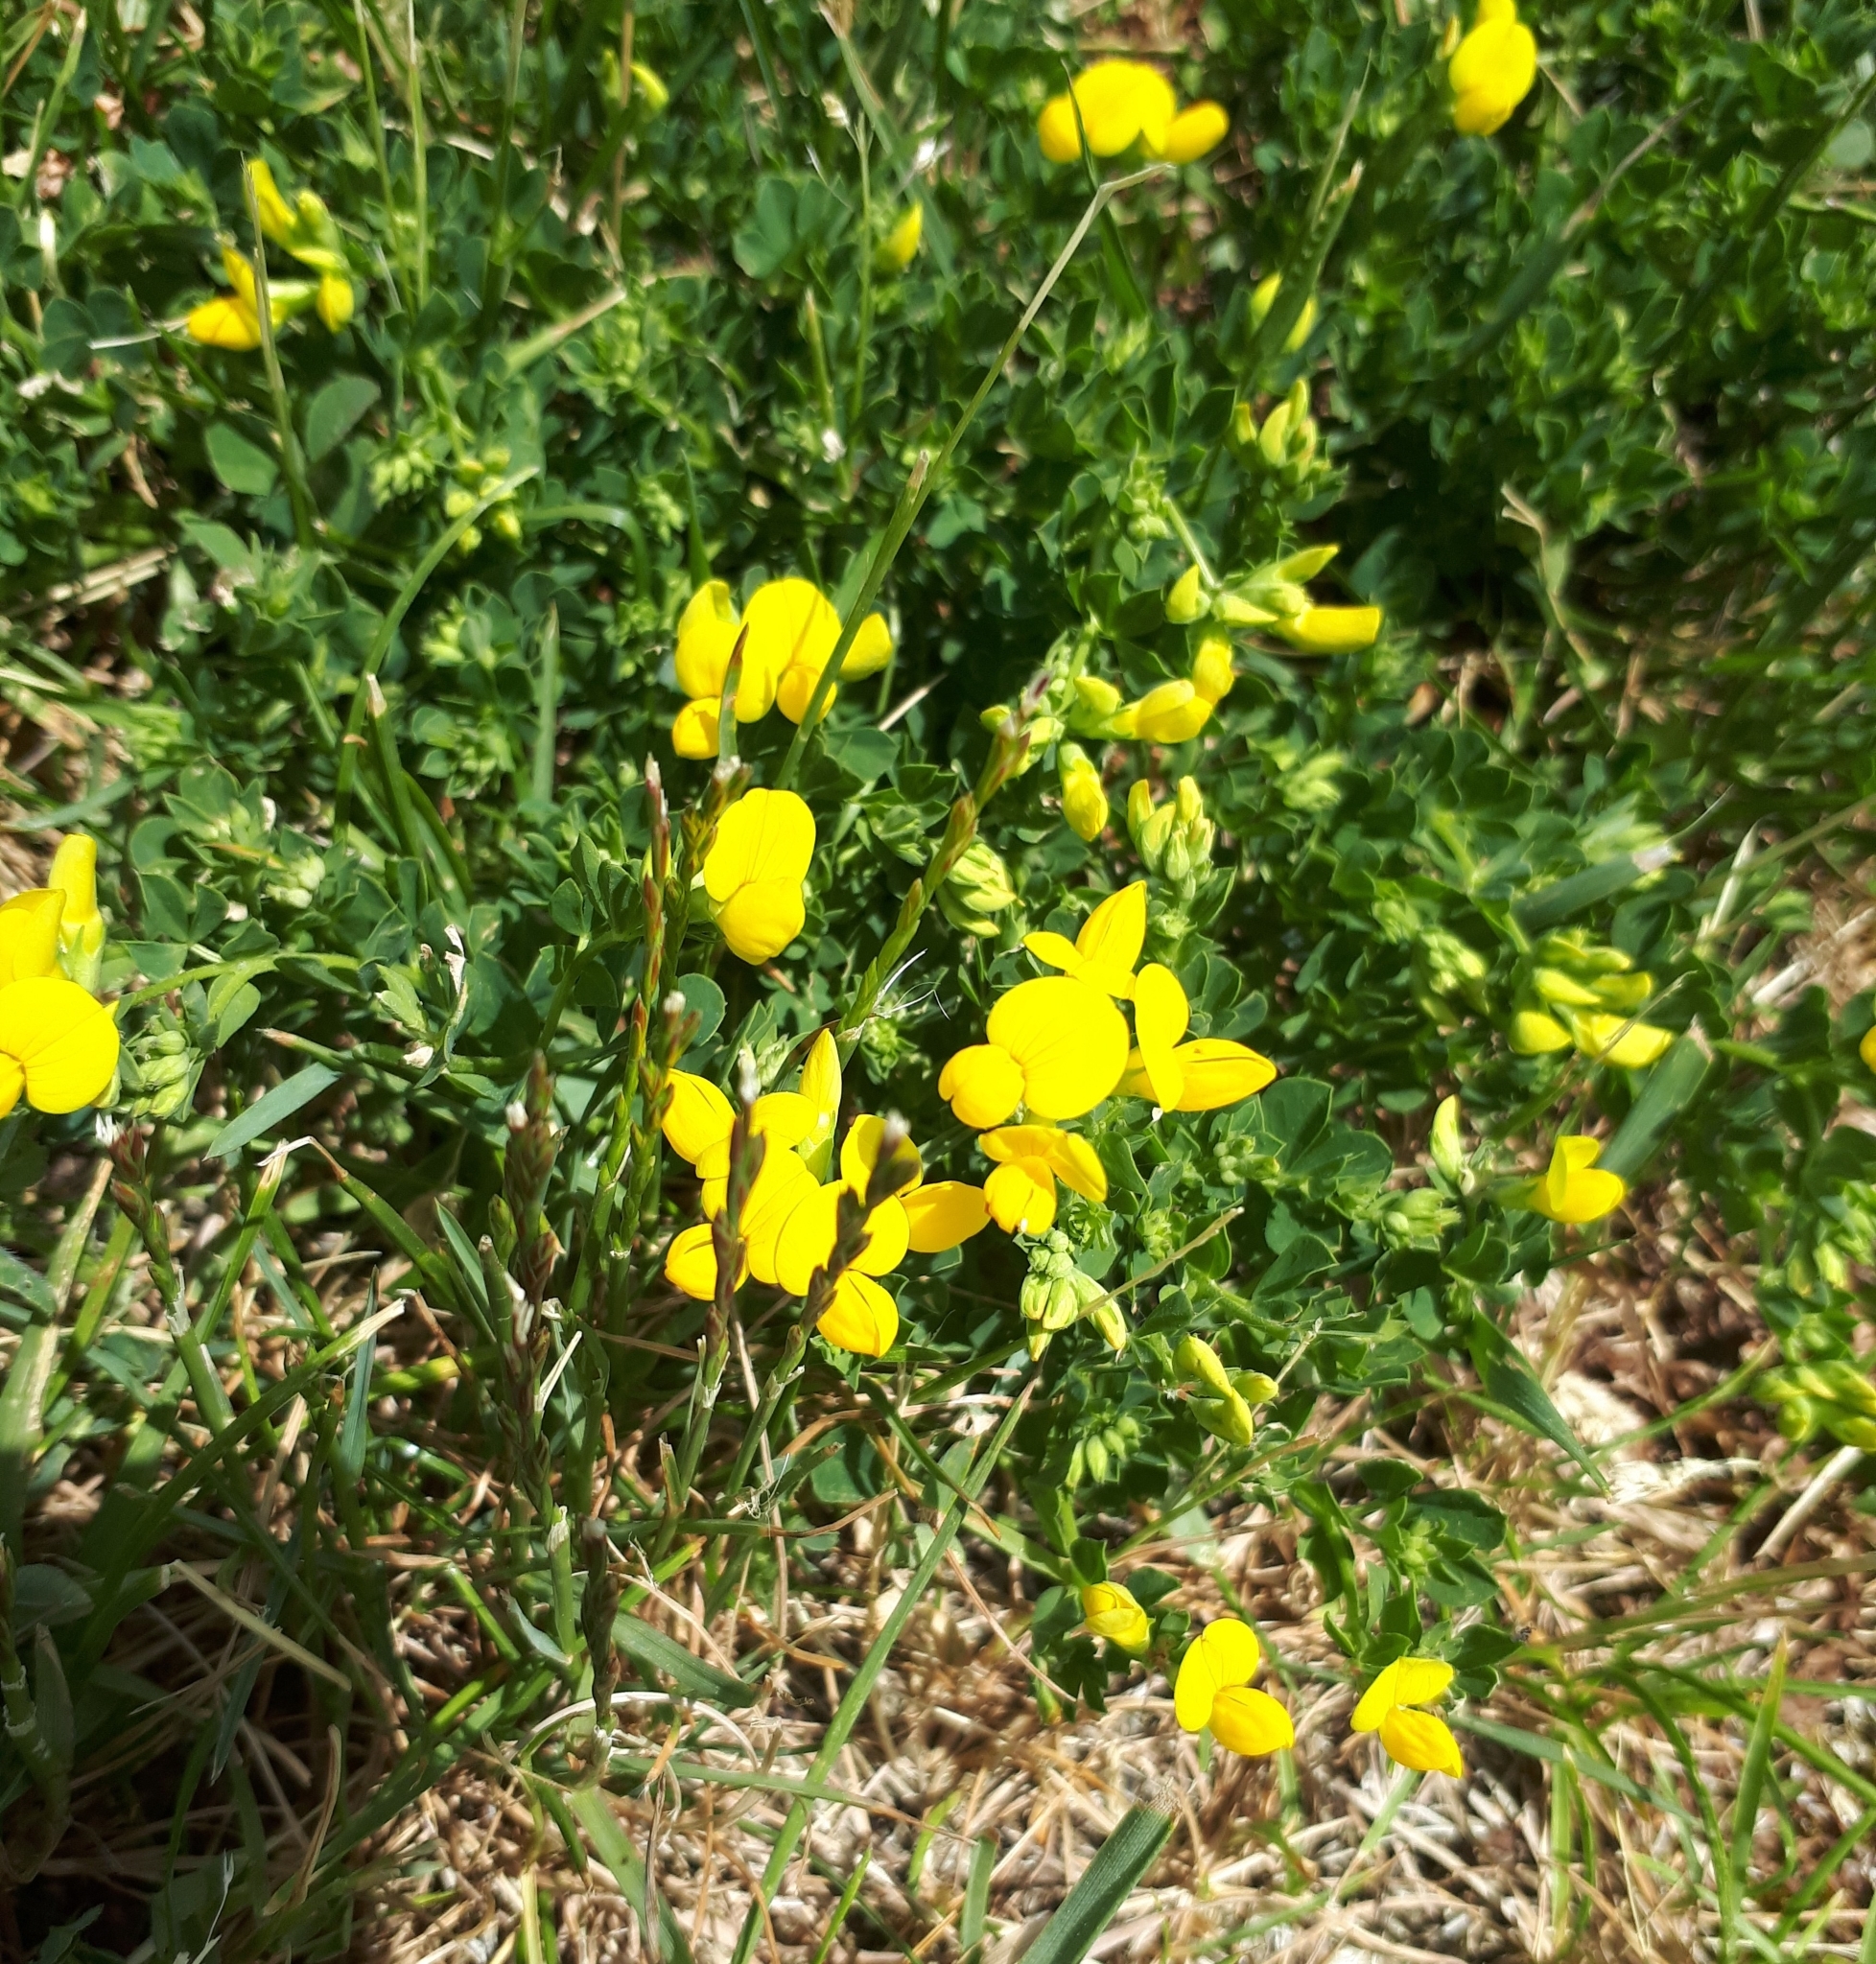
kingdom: Plantae
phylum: Tracheophyta
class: Magnoliopsida
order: Fabales
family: Fabaceae
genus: Lotus
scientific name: Lotus corniculatus
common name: Common bird's-foot-trefoil
